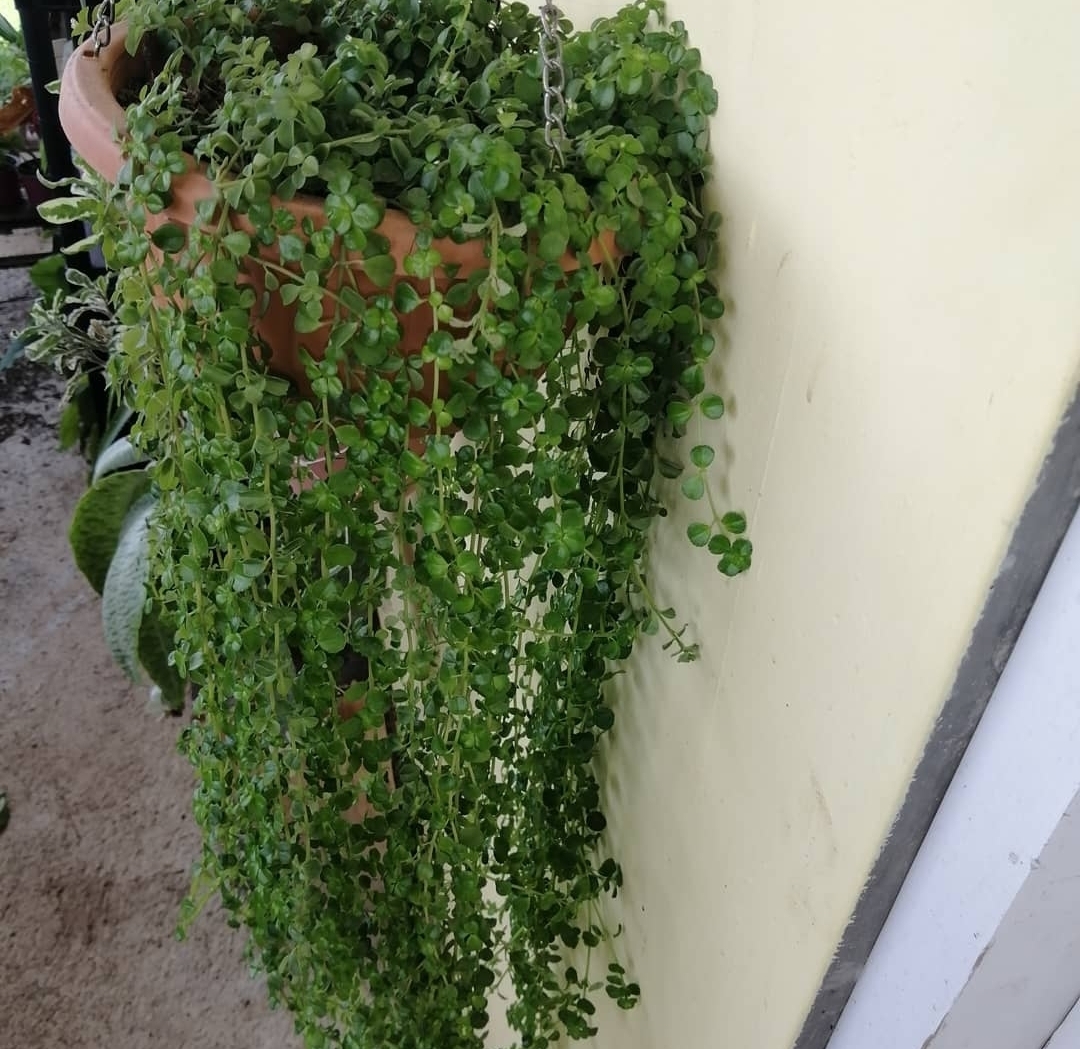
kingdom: Plantae
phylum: Tracheophyta
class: Magnoliopsida
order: Rosales
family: Urticaceae
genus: Pilea
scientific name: Pilea depressa
